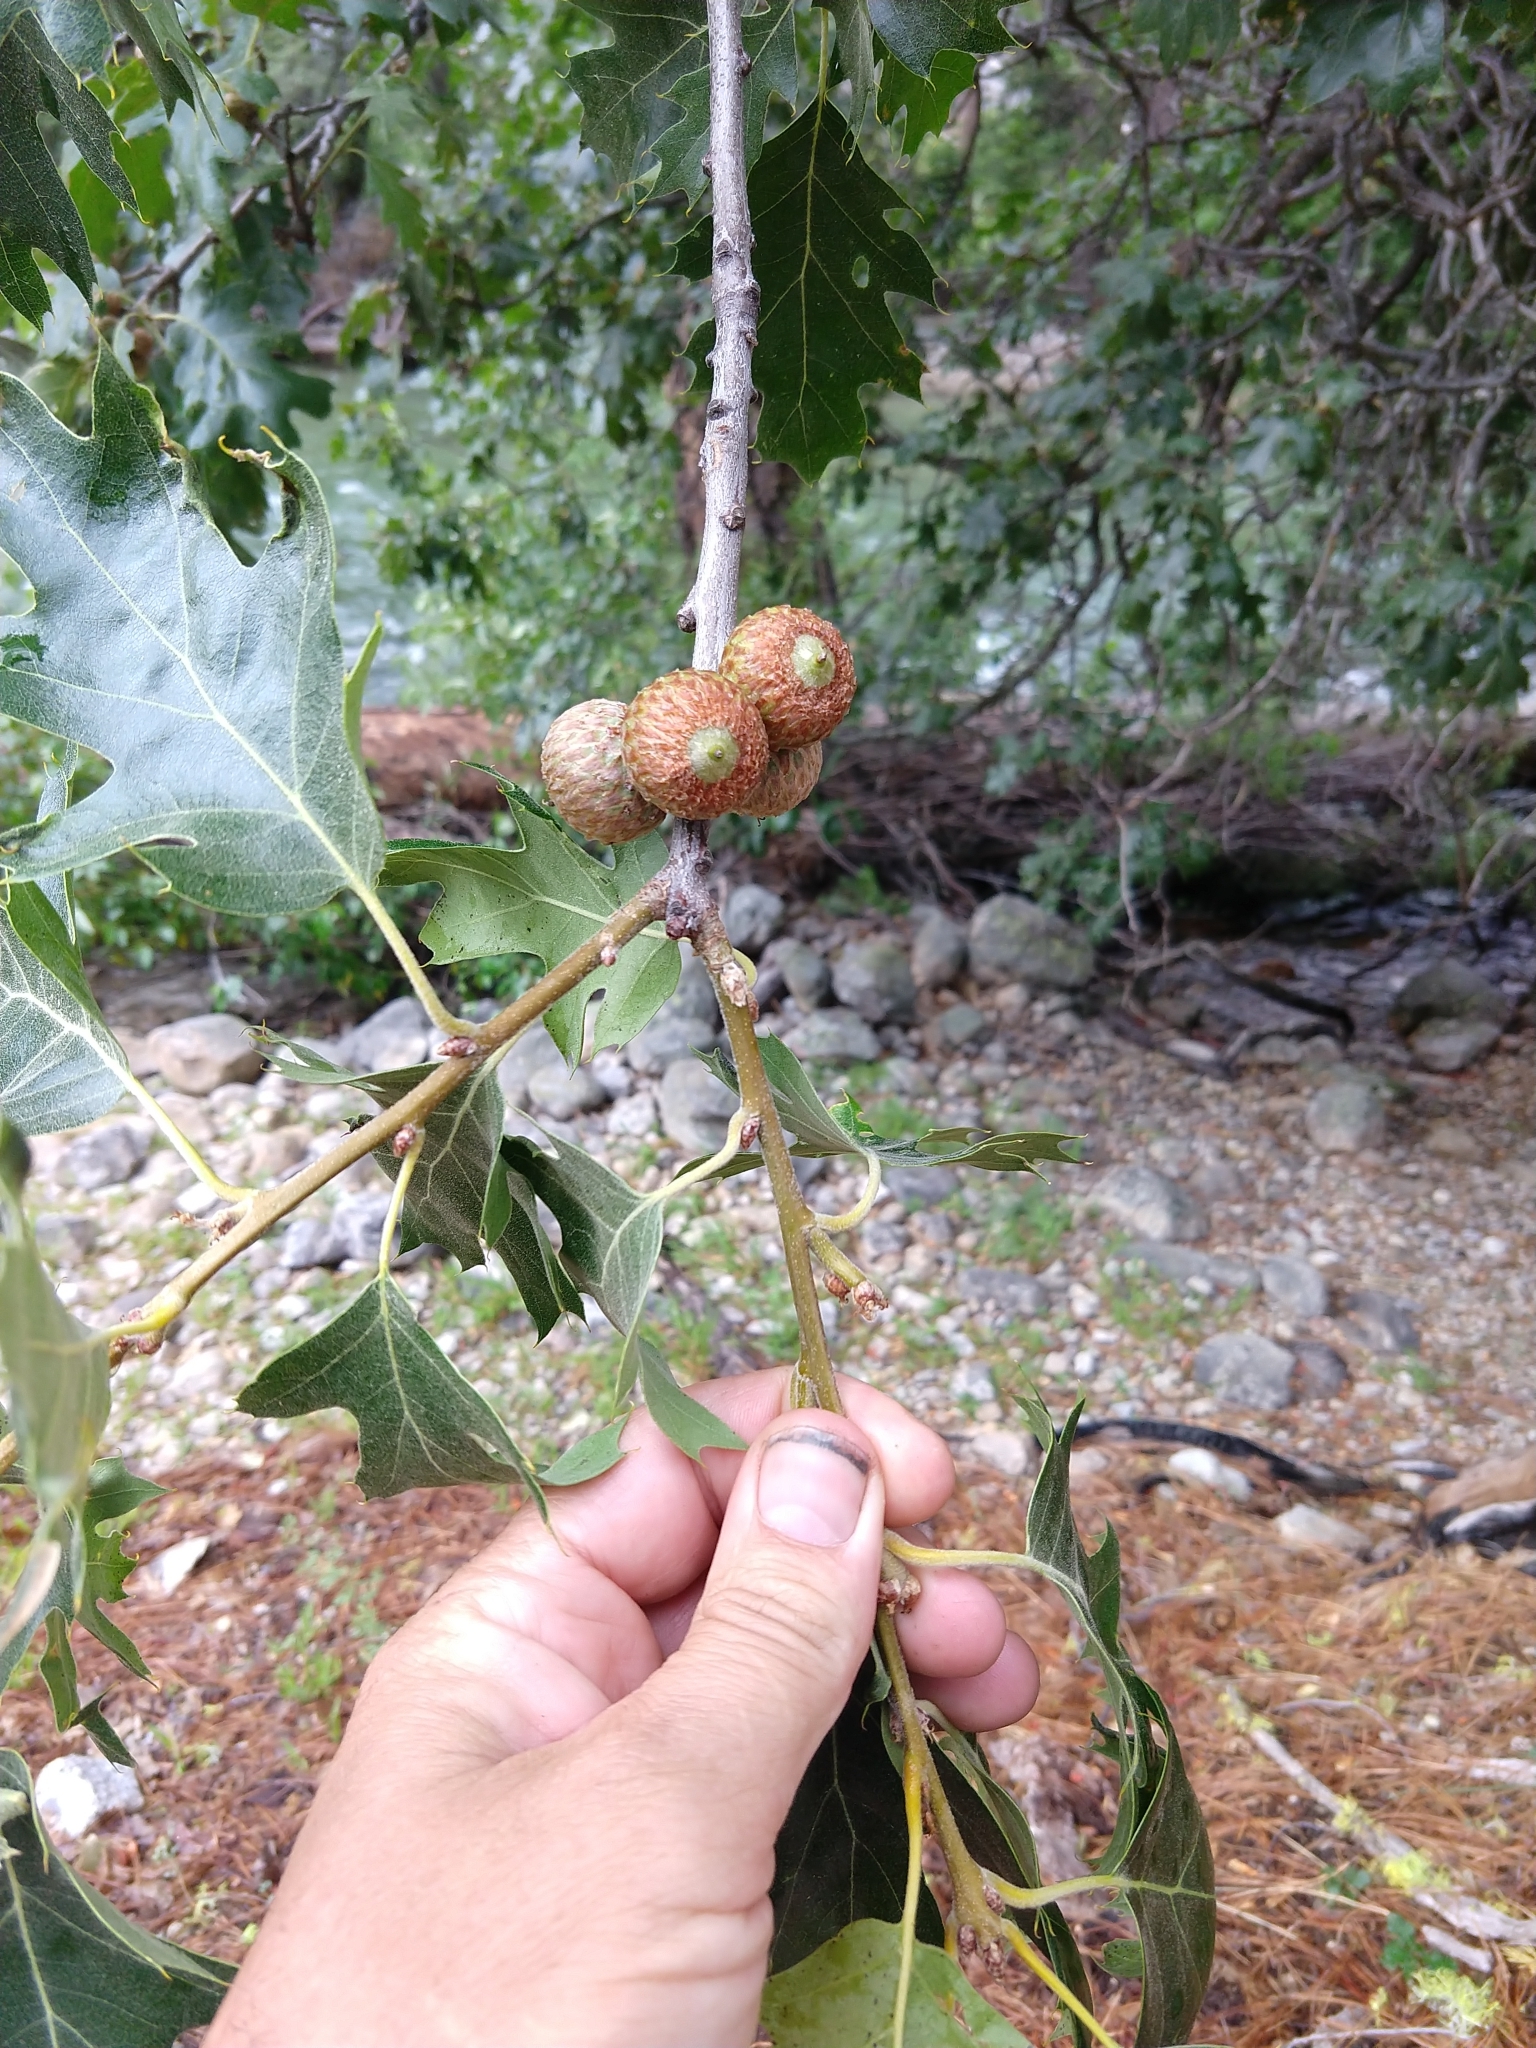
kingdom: Plantae
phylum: Tracheophyta
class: Magnoliopsida
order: Fagales
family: Fagaceae
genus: Quercus
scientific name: Quercus kelloggii
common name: California black oak
